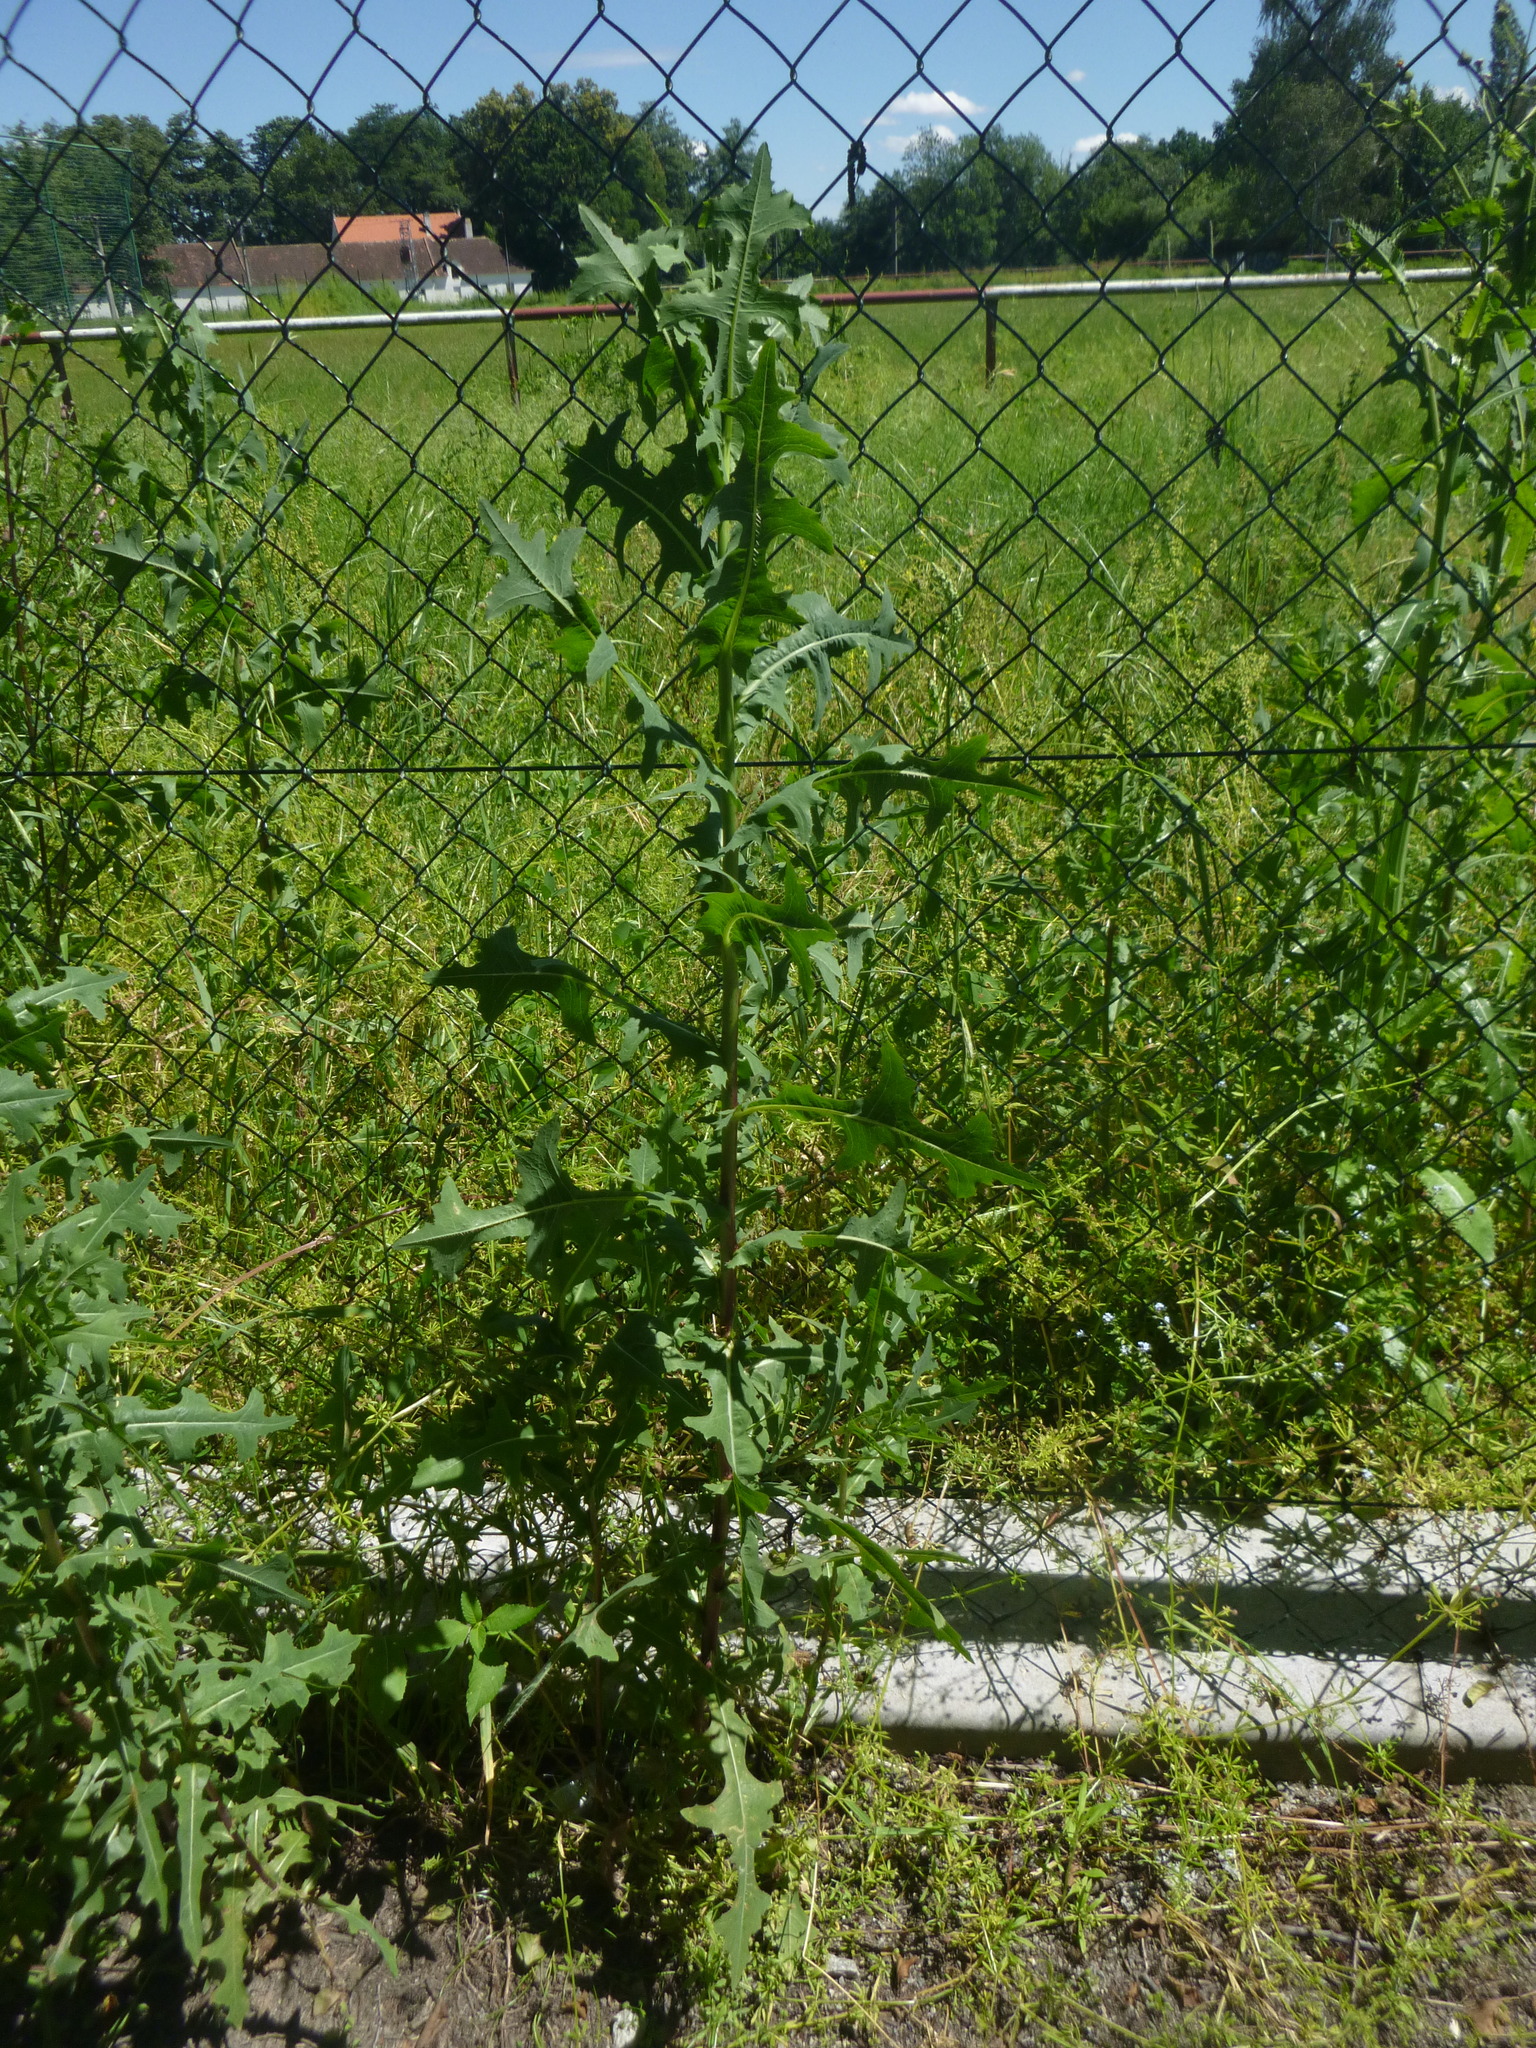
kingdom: Plantae
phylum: Tracheophyta
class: Magnoliopsida
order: Asterales
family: Asteraceae
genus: Lactuca
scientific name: Lactuca serriola
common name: Prickly lettuce
